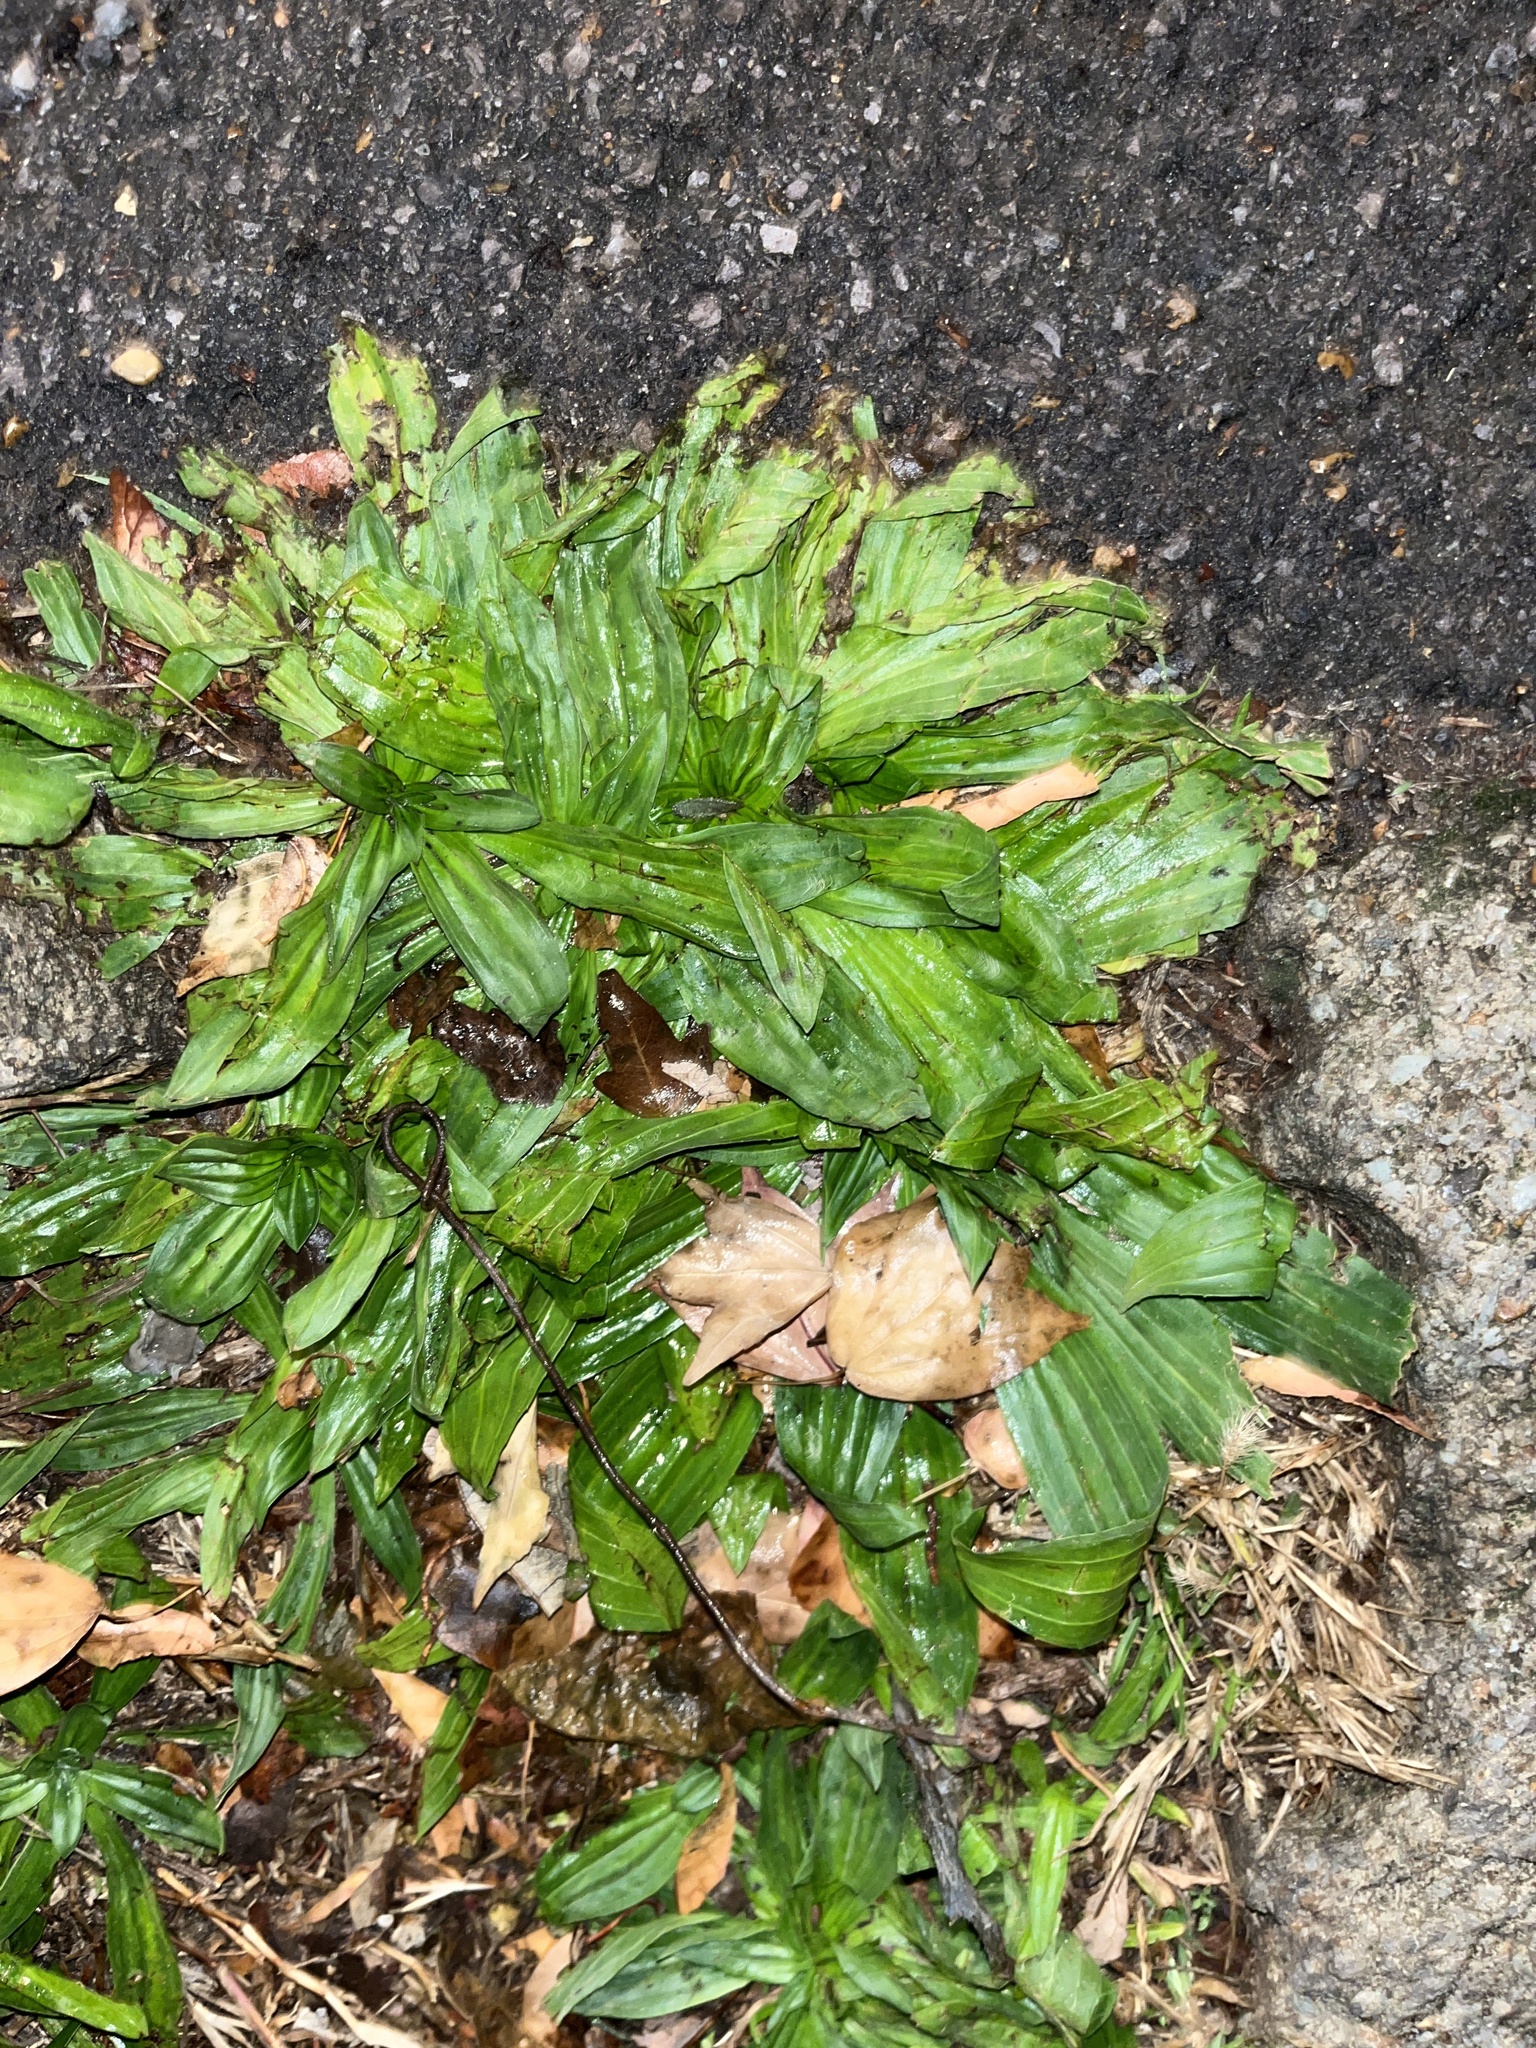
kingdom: Plantae
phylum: Tracheophyta
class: Magnoliopsida
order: Lamiales
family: Plantaginaceae
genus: Plantago
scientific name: Plantago lanceolata
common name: Ribwort plantain
